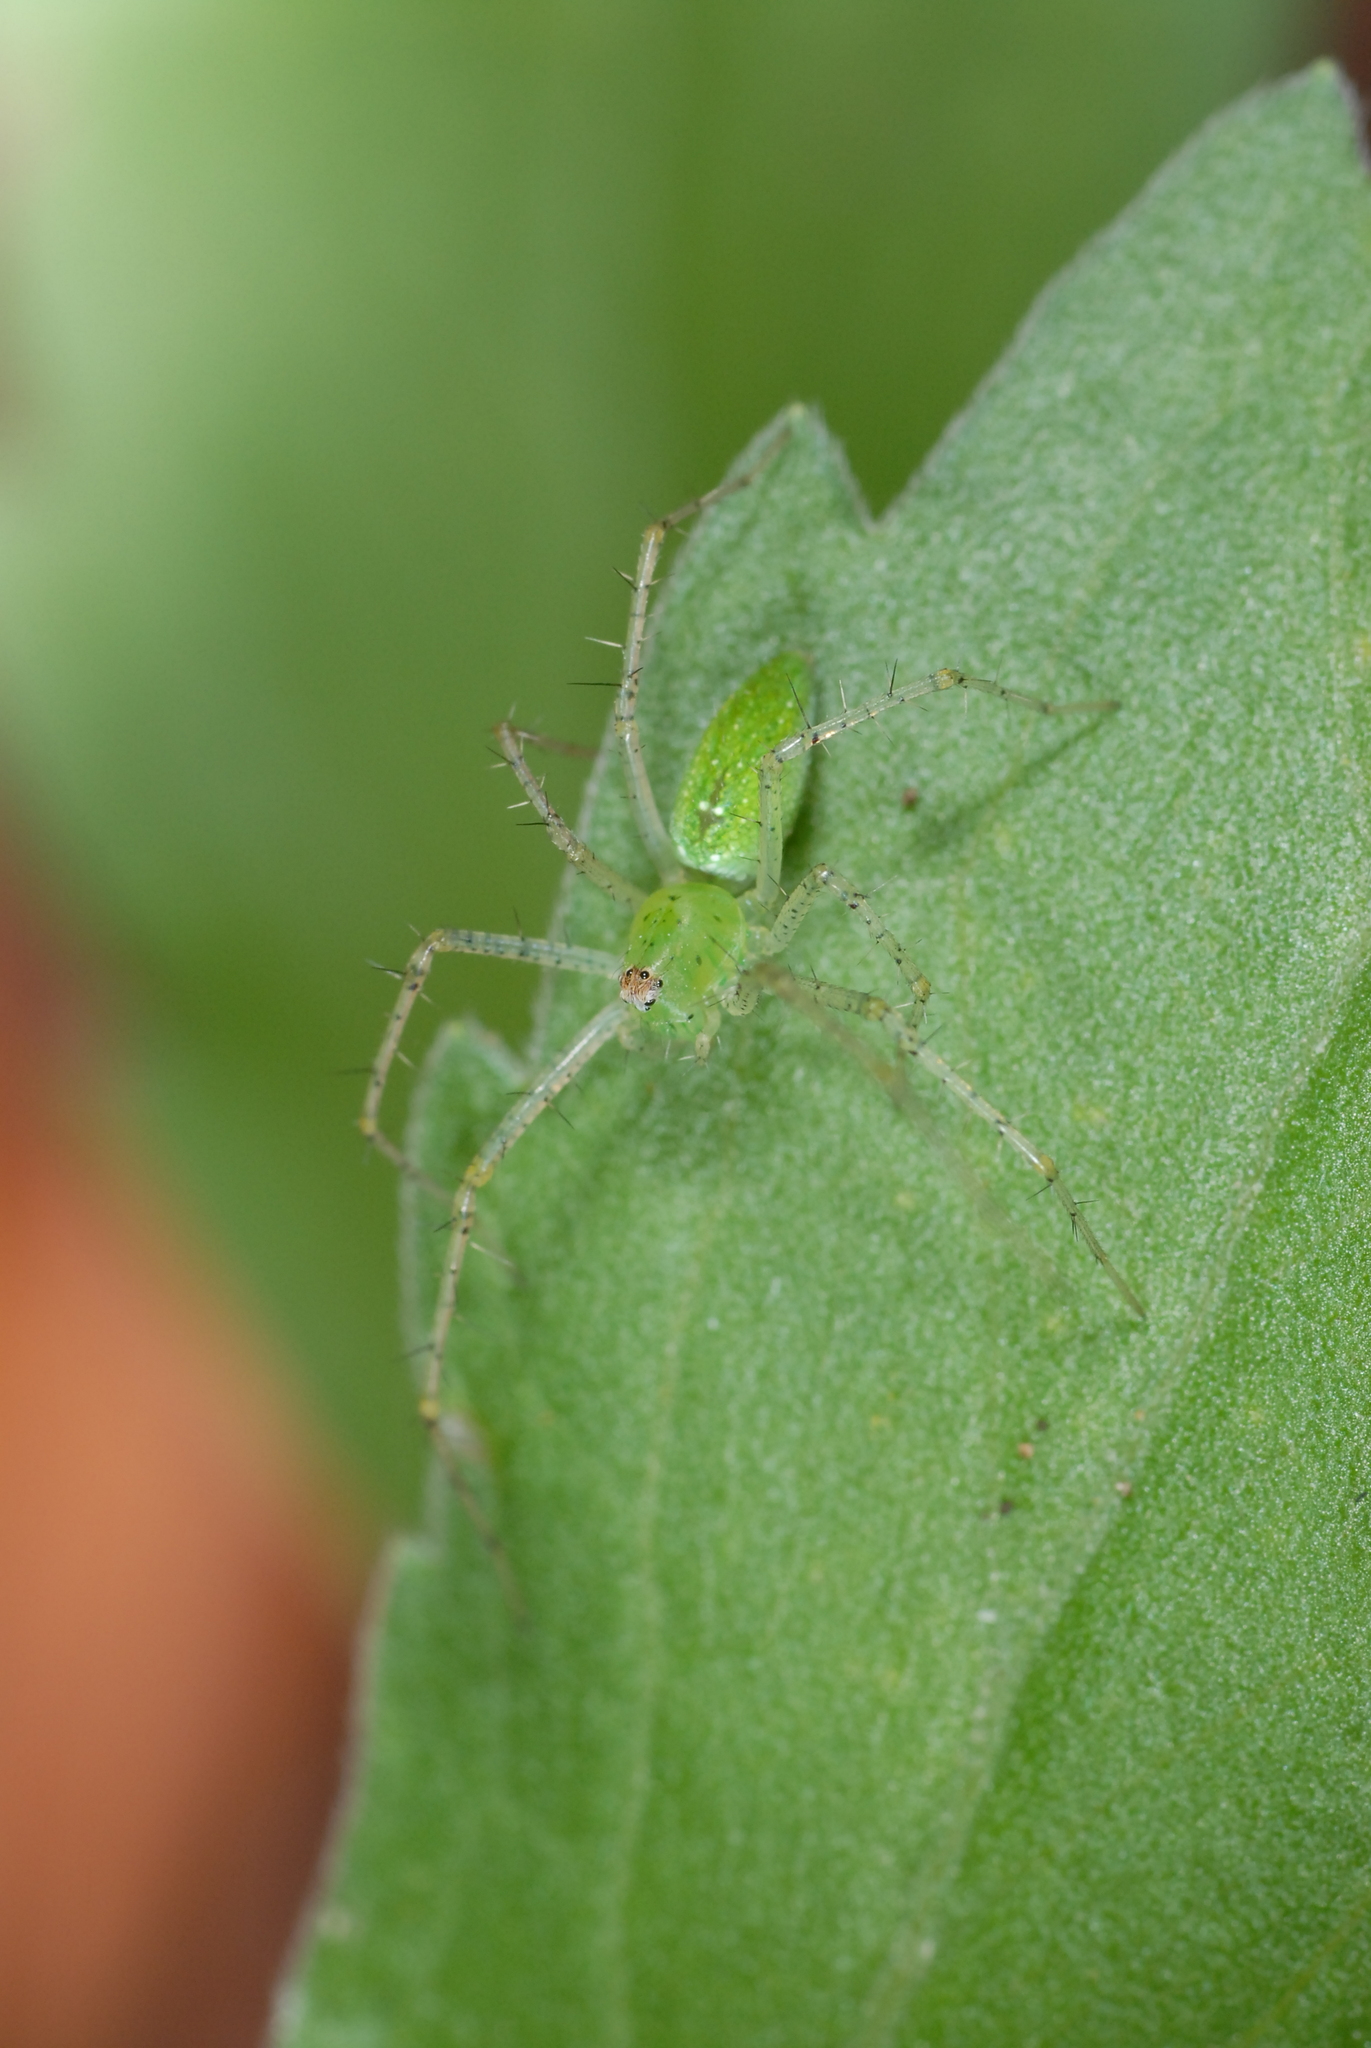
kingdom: Animalia
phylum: Arthropoda
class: Arachnida
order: Araneae
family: Oxyopidae
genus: Peucetia
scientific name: Peucetia formosensis
